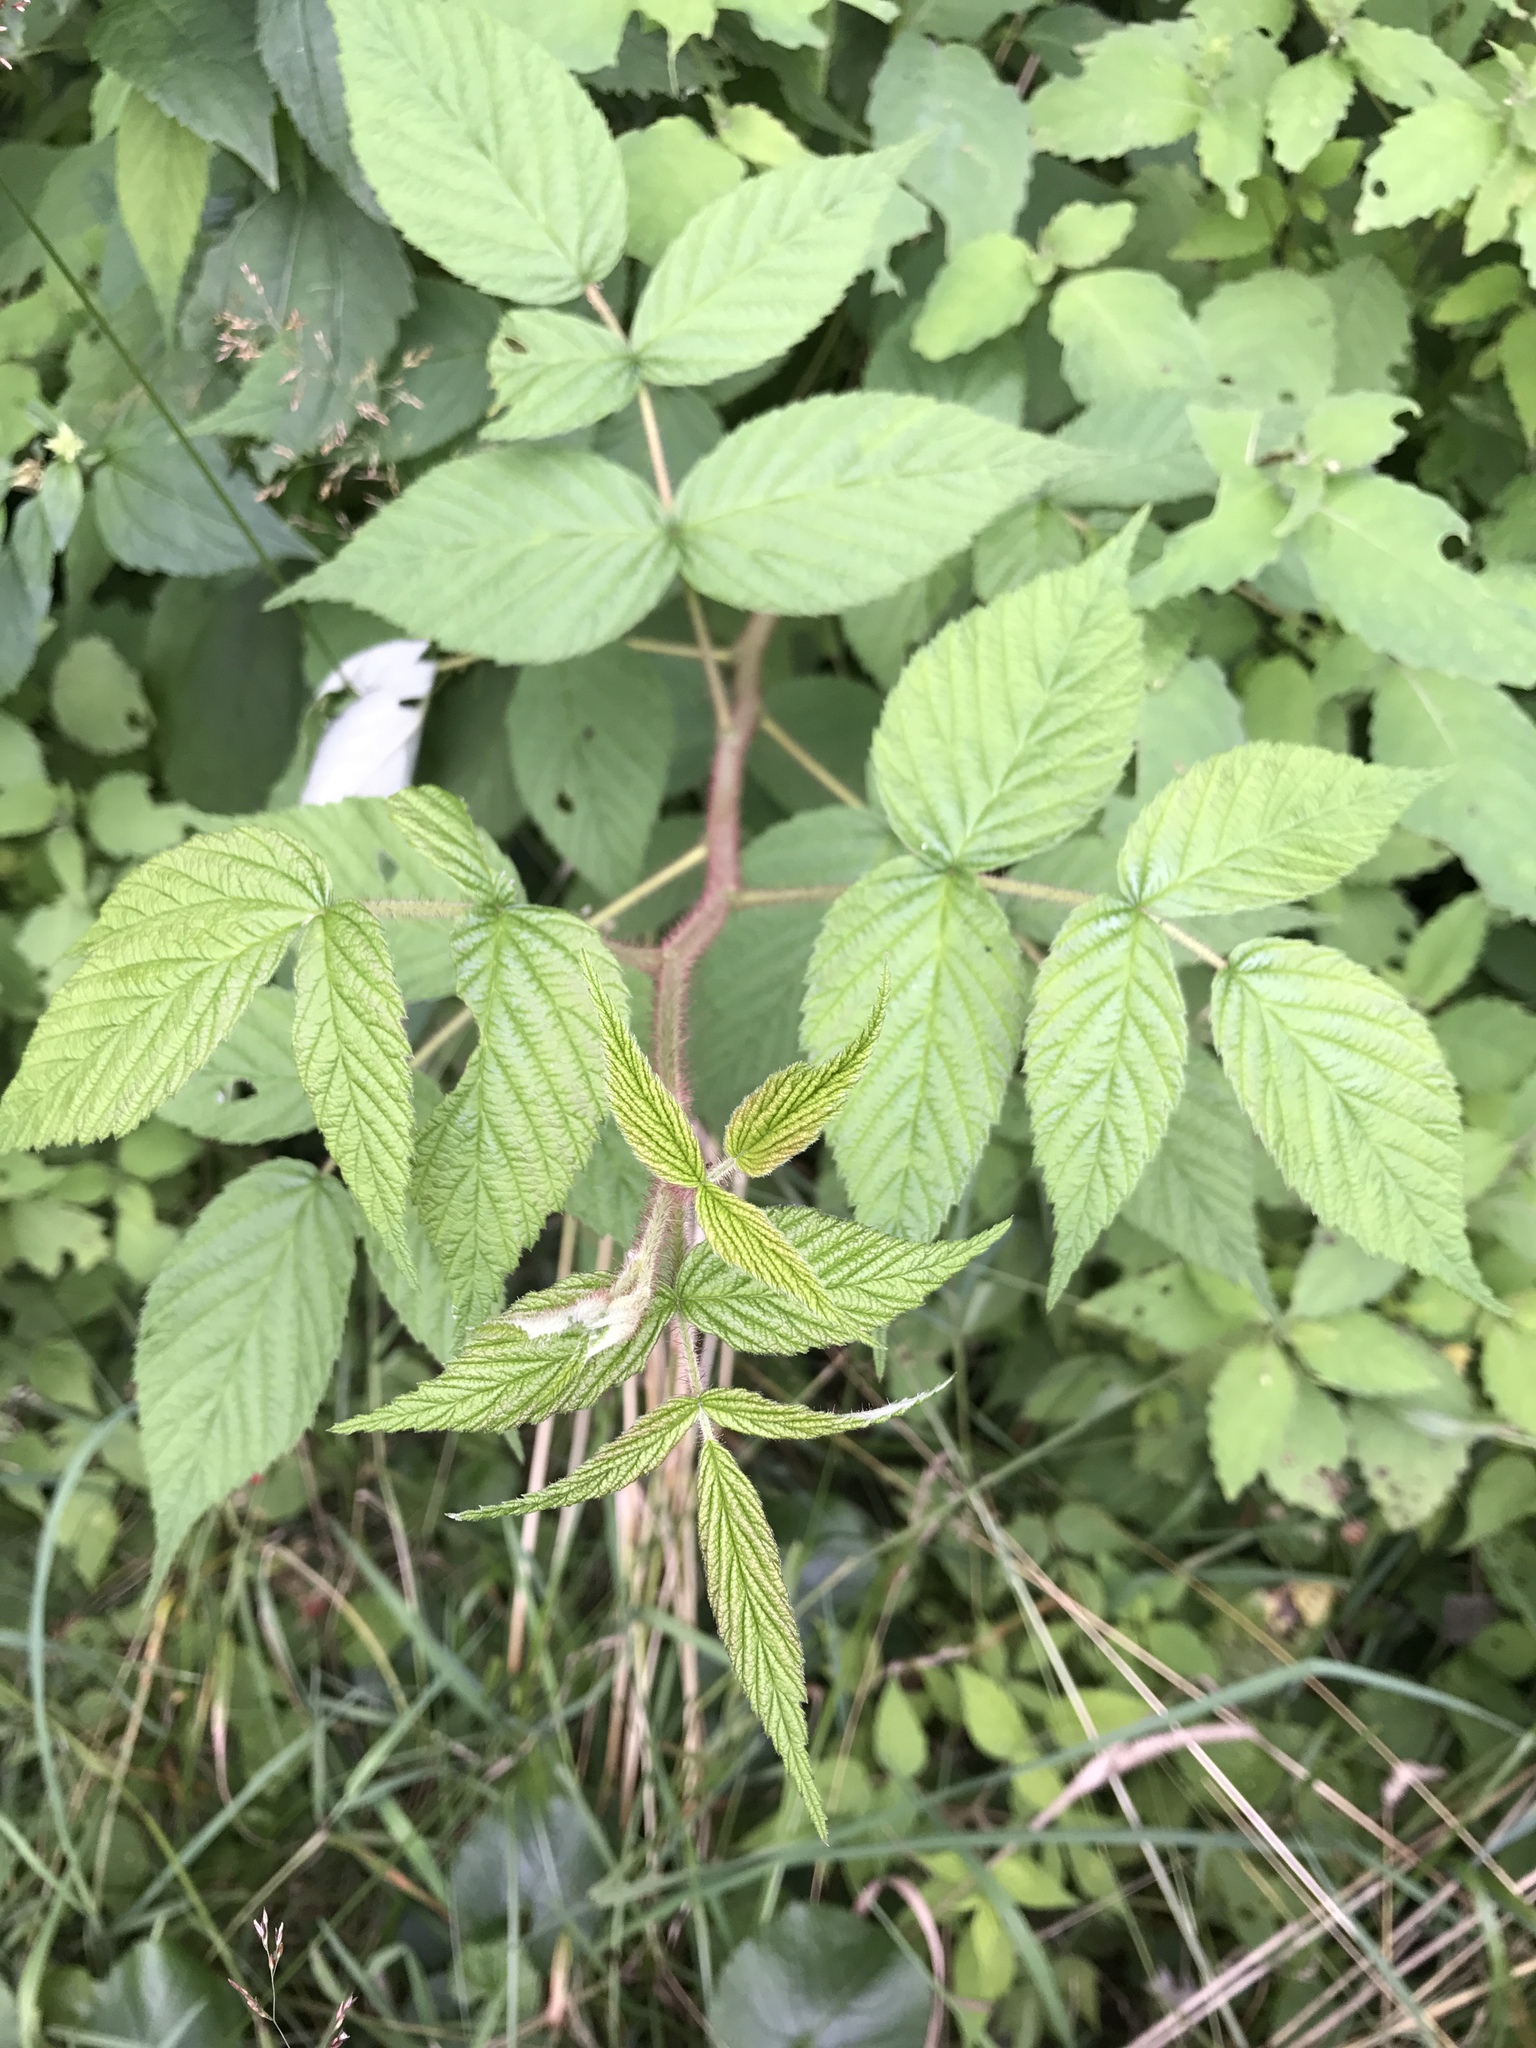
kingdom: Plantae
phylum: Tracheophyta
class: Magnoliopsida
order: Rosales
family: Rosaceae
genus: Rubus
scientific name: Rubus idaeus
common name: Raspberry
